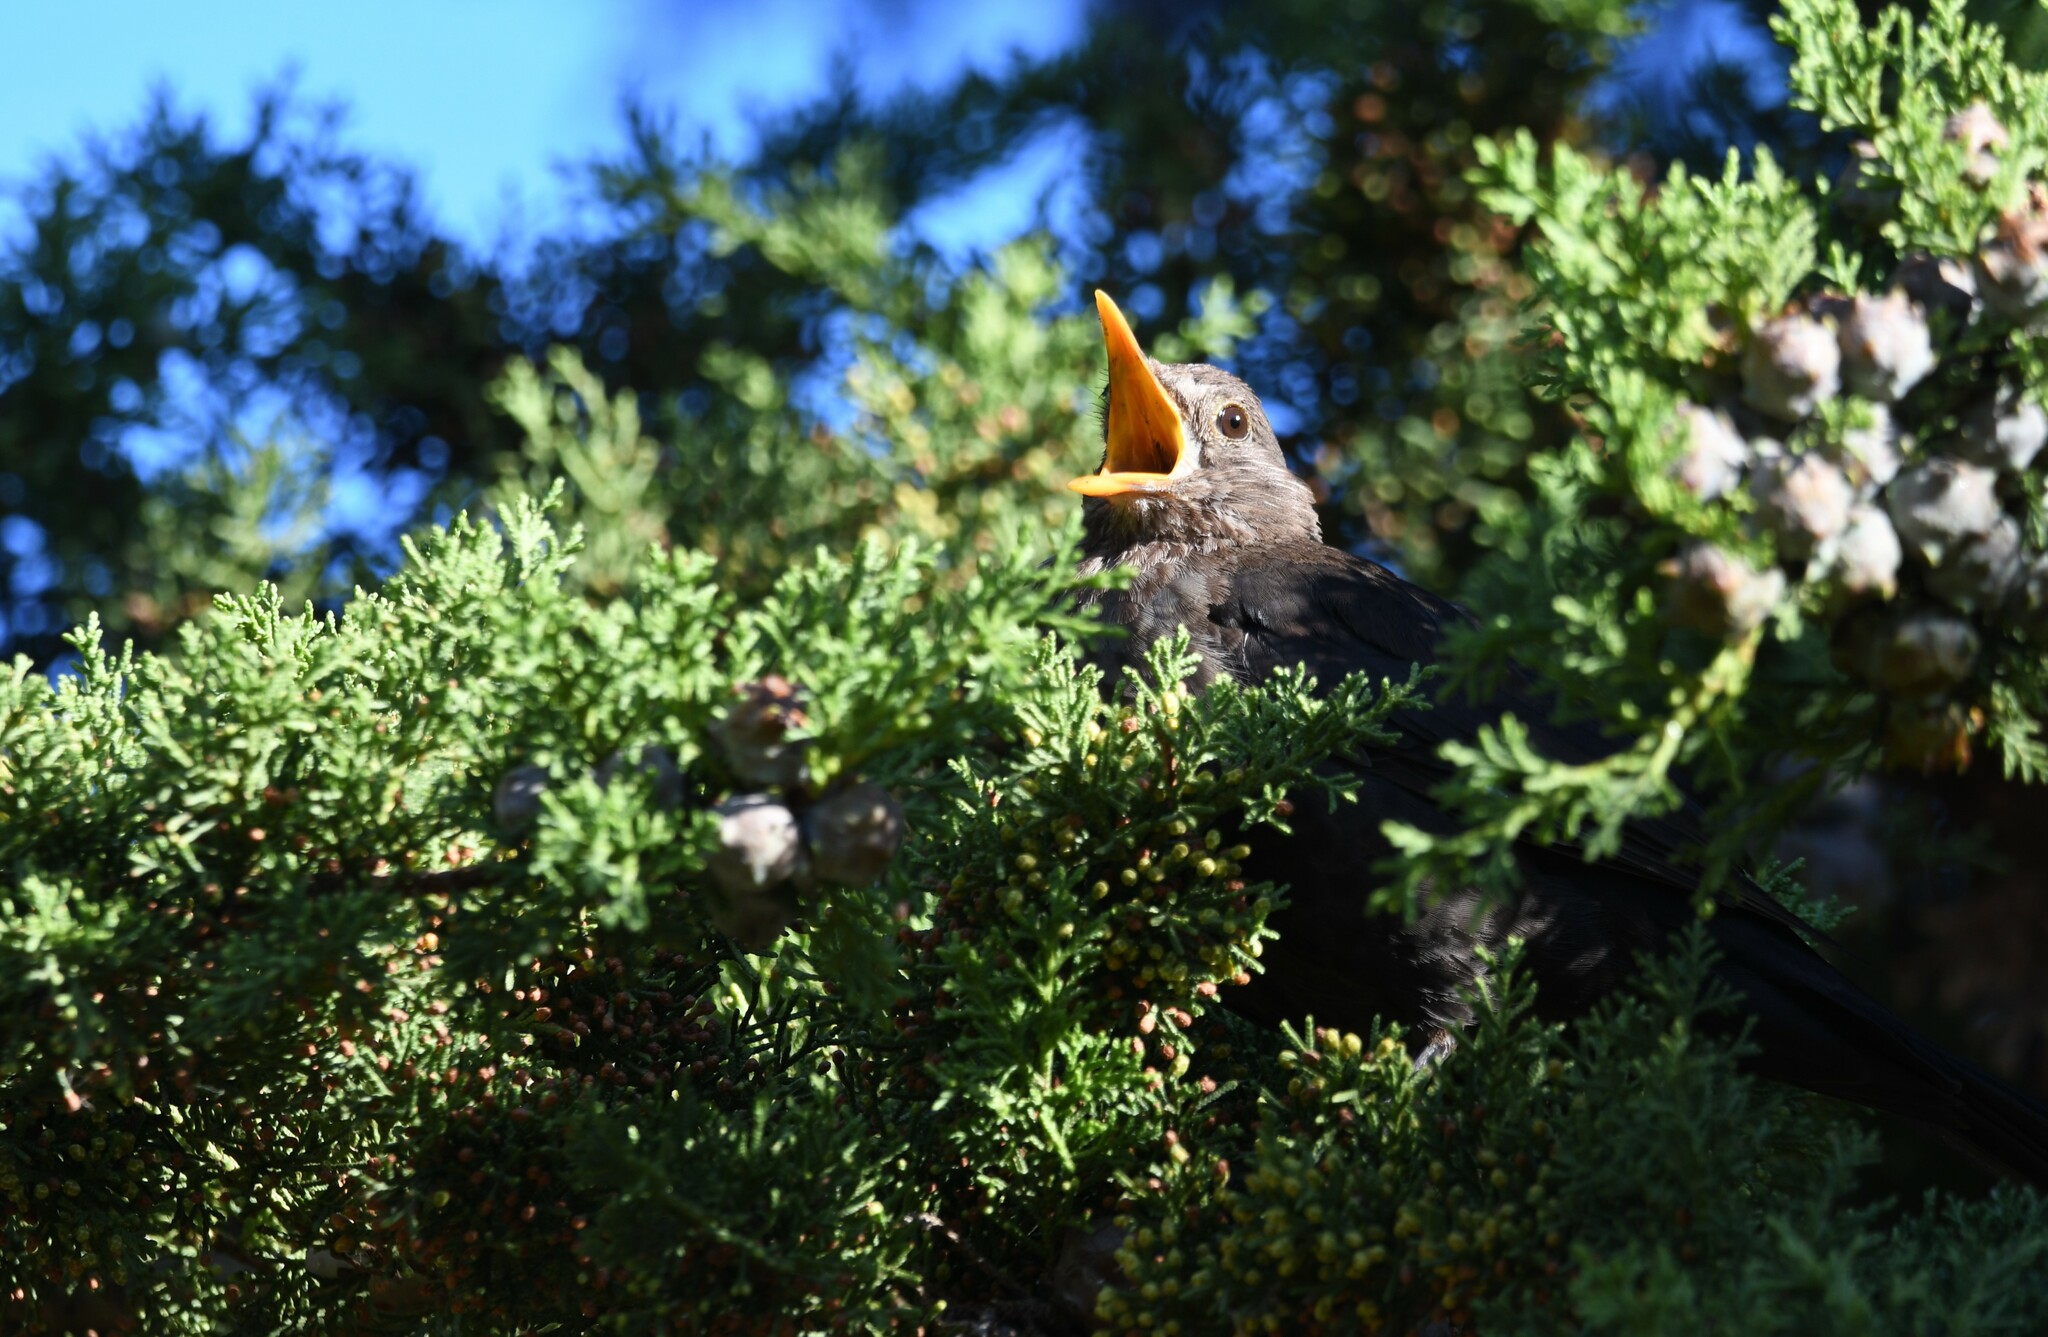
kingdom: Animalia
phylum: Chordata
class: Aves
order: Passeriformes
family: Turdidae
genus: Turdus
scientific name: Turdus merula
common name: Common blackbird
